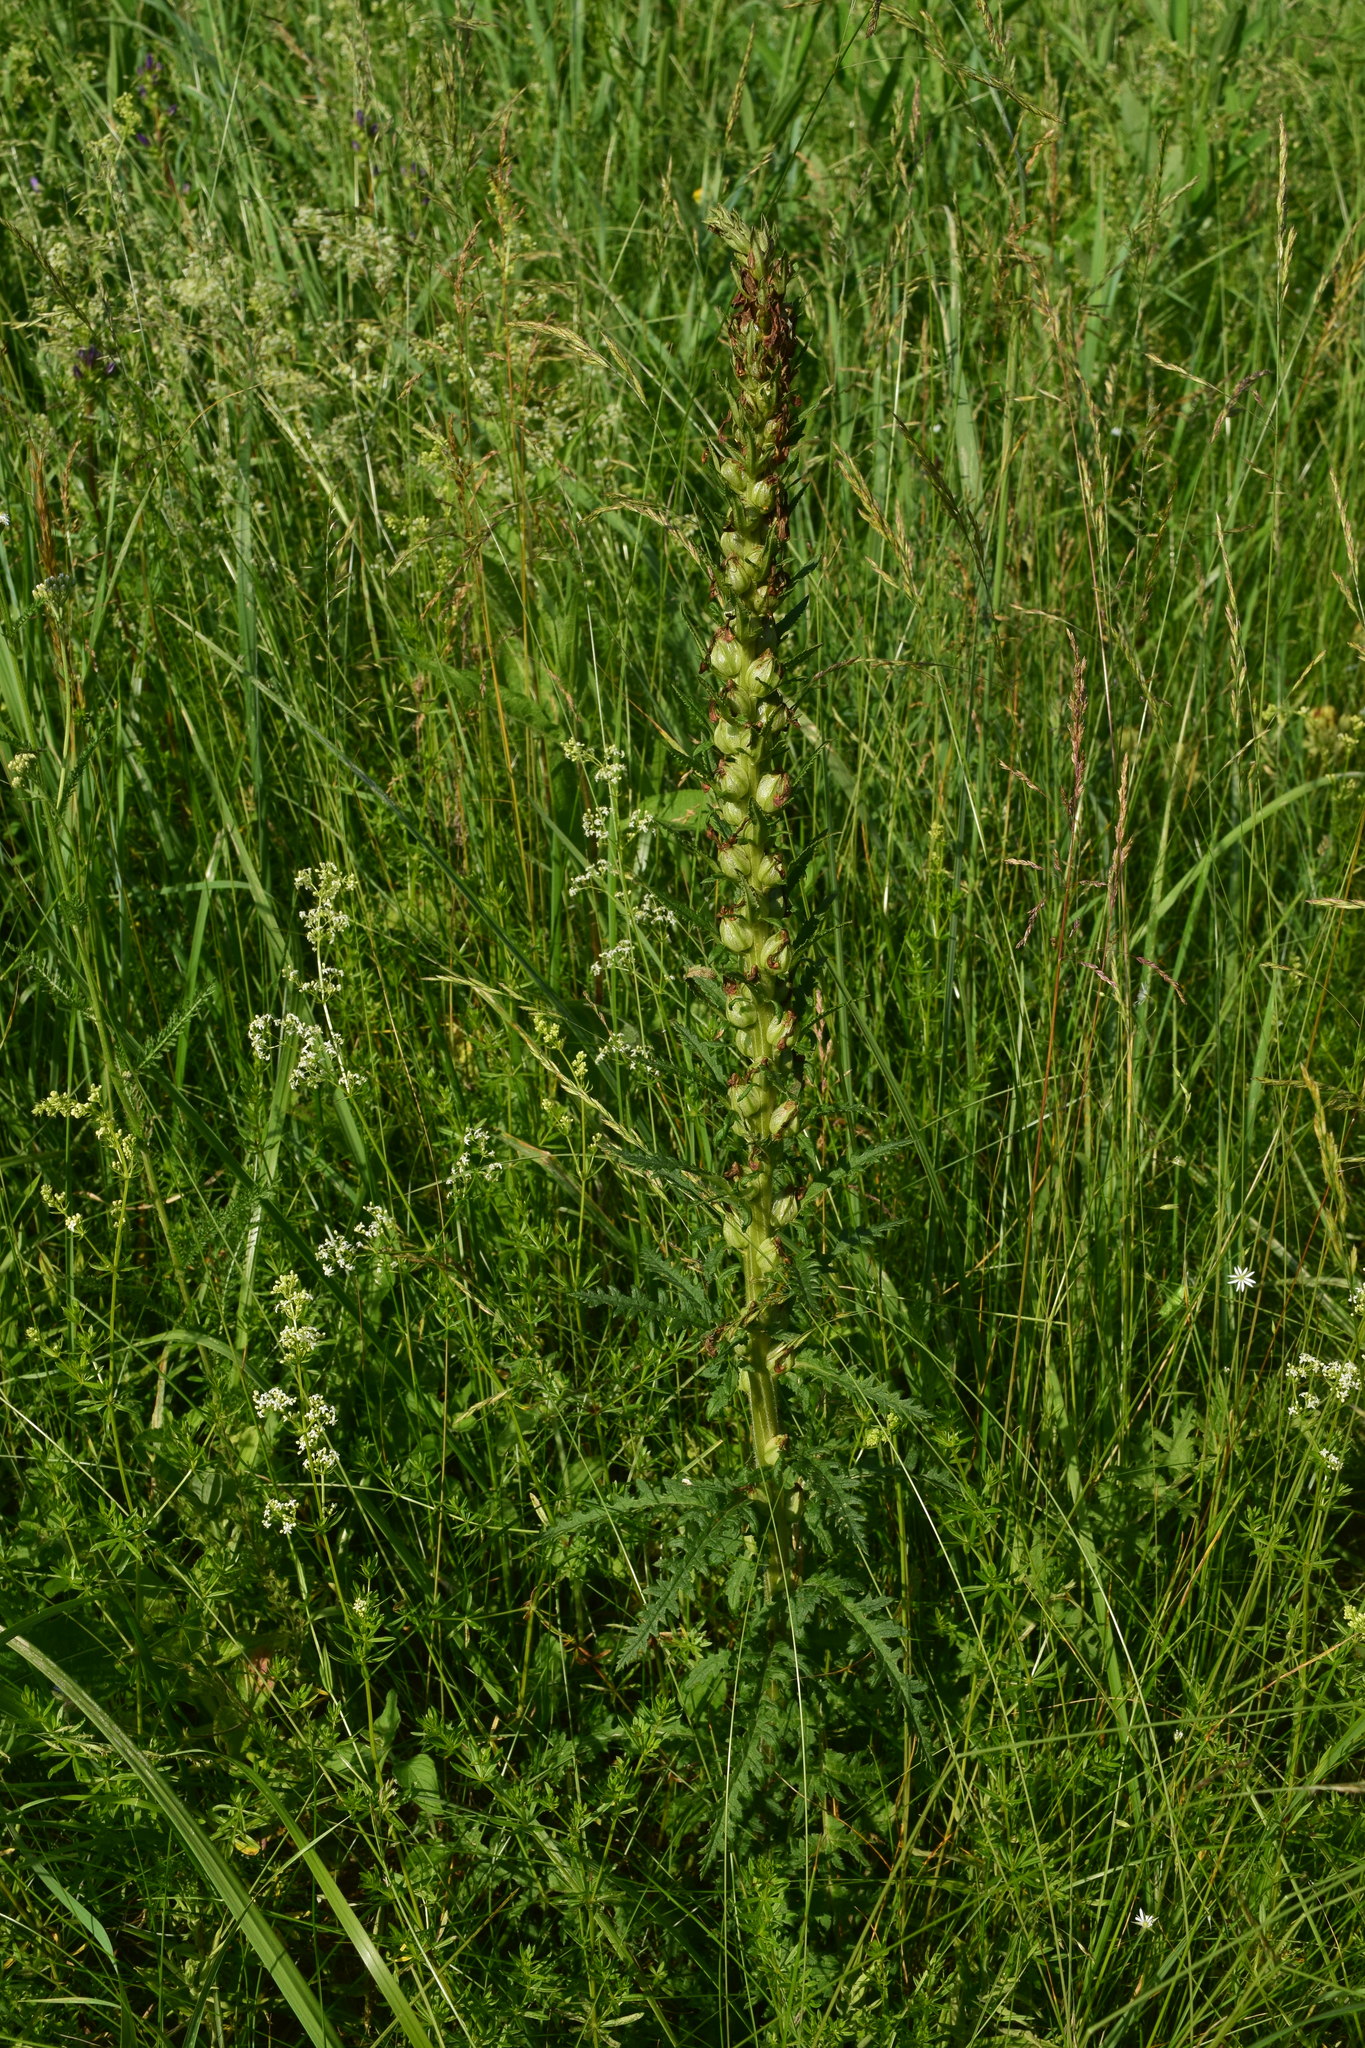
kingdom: Plantae
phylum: Tracheophyta
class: Magnoliopsida
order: Lamiales
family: Orobanchaceae
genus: Pedicularis
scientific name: Pedicularis kaufmannii
